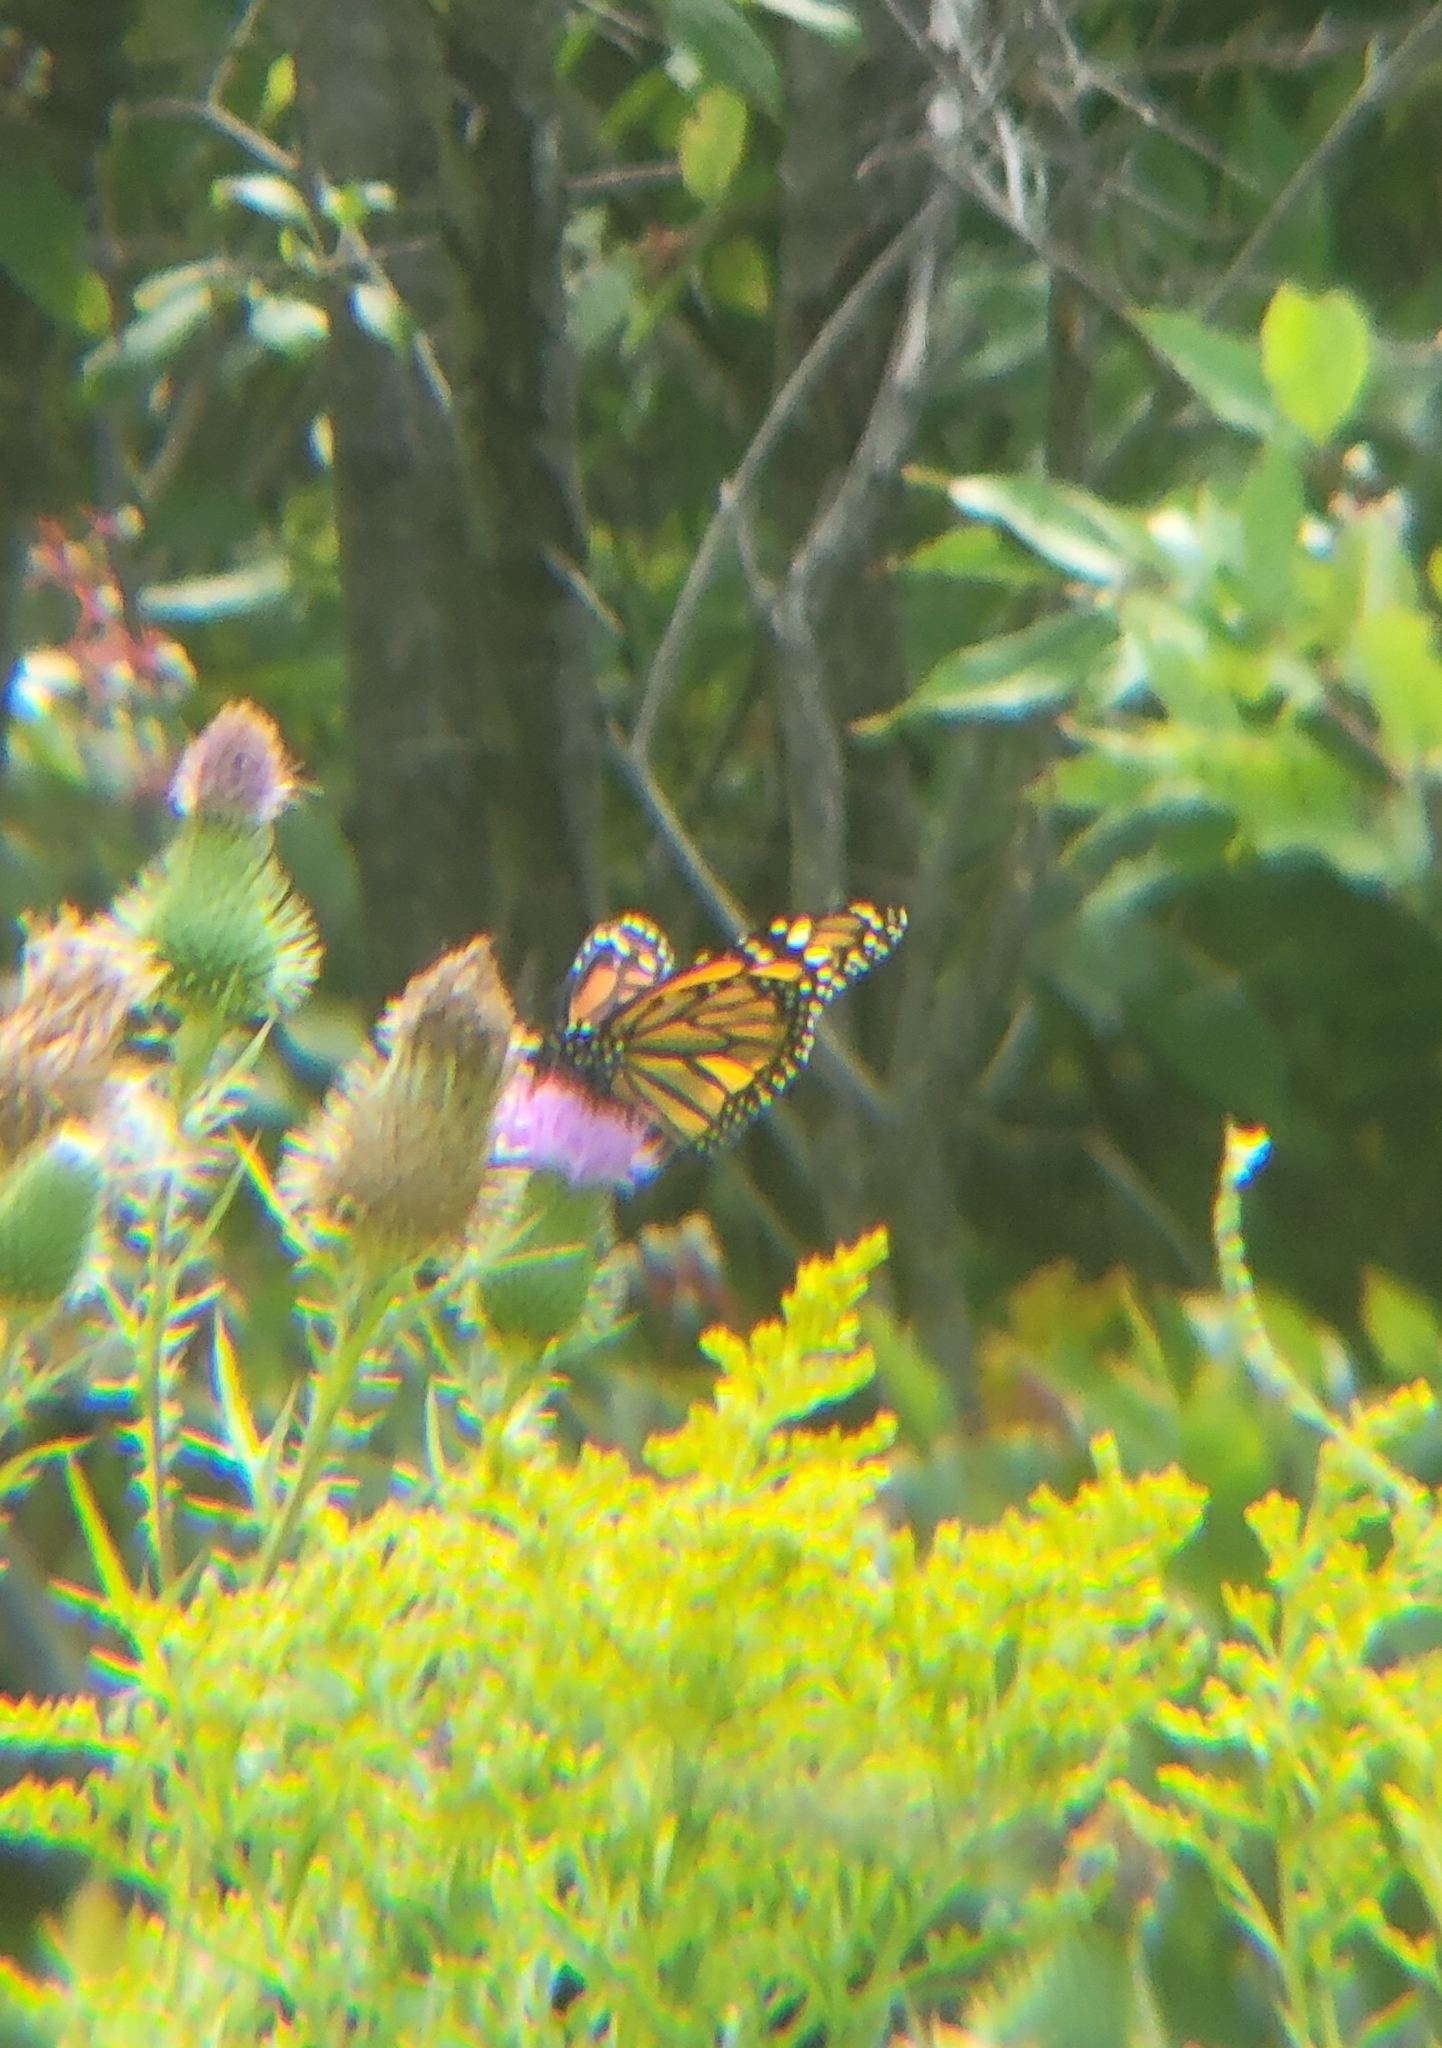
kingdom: Animalia
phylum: Arthropoda
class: Insecta
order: Lepidoptera
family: Nymphalidae
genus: Danaus
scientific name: Danaus plexippus
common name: Monarch
